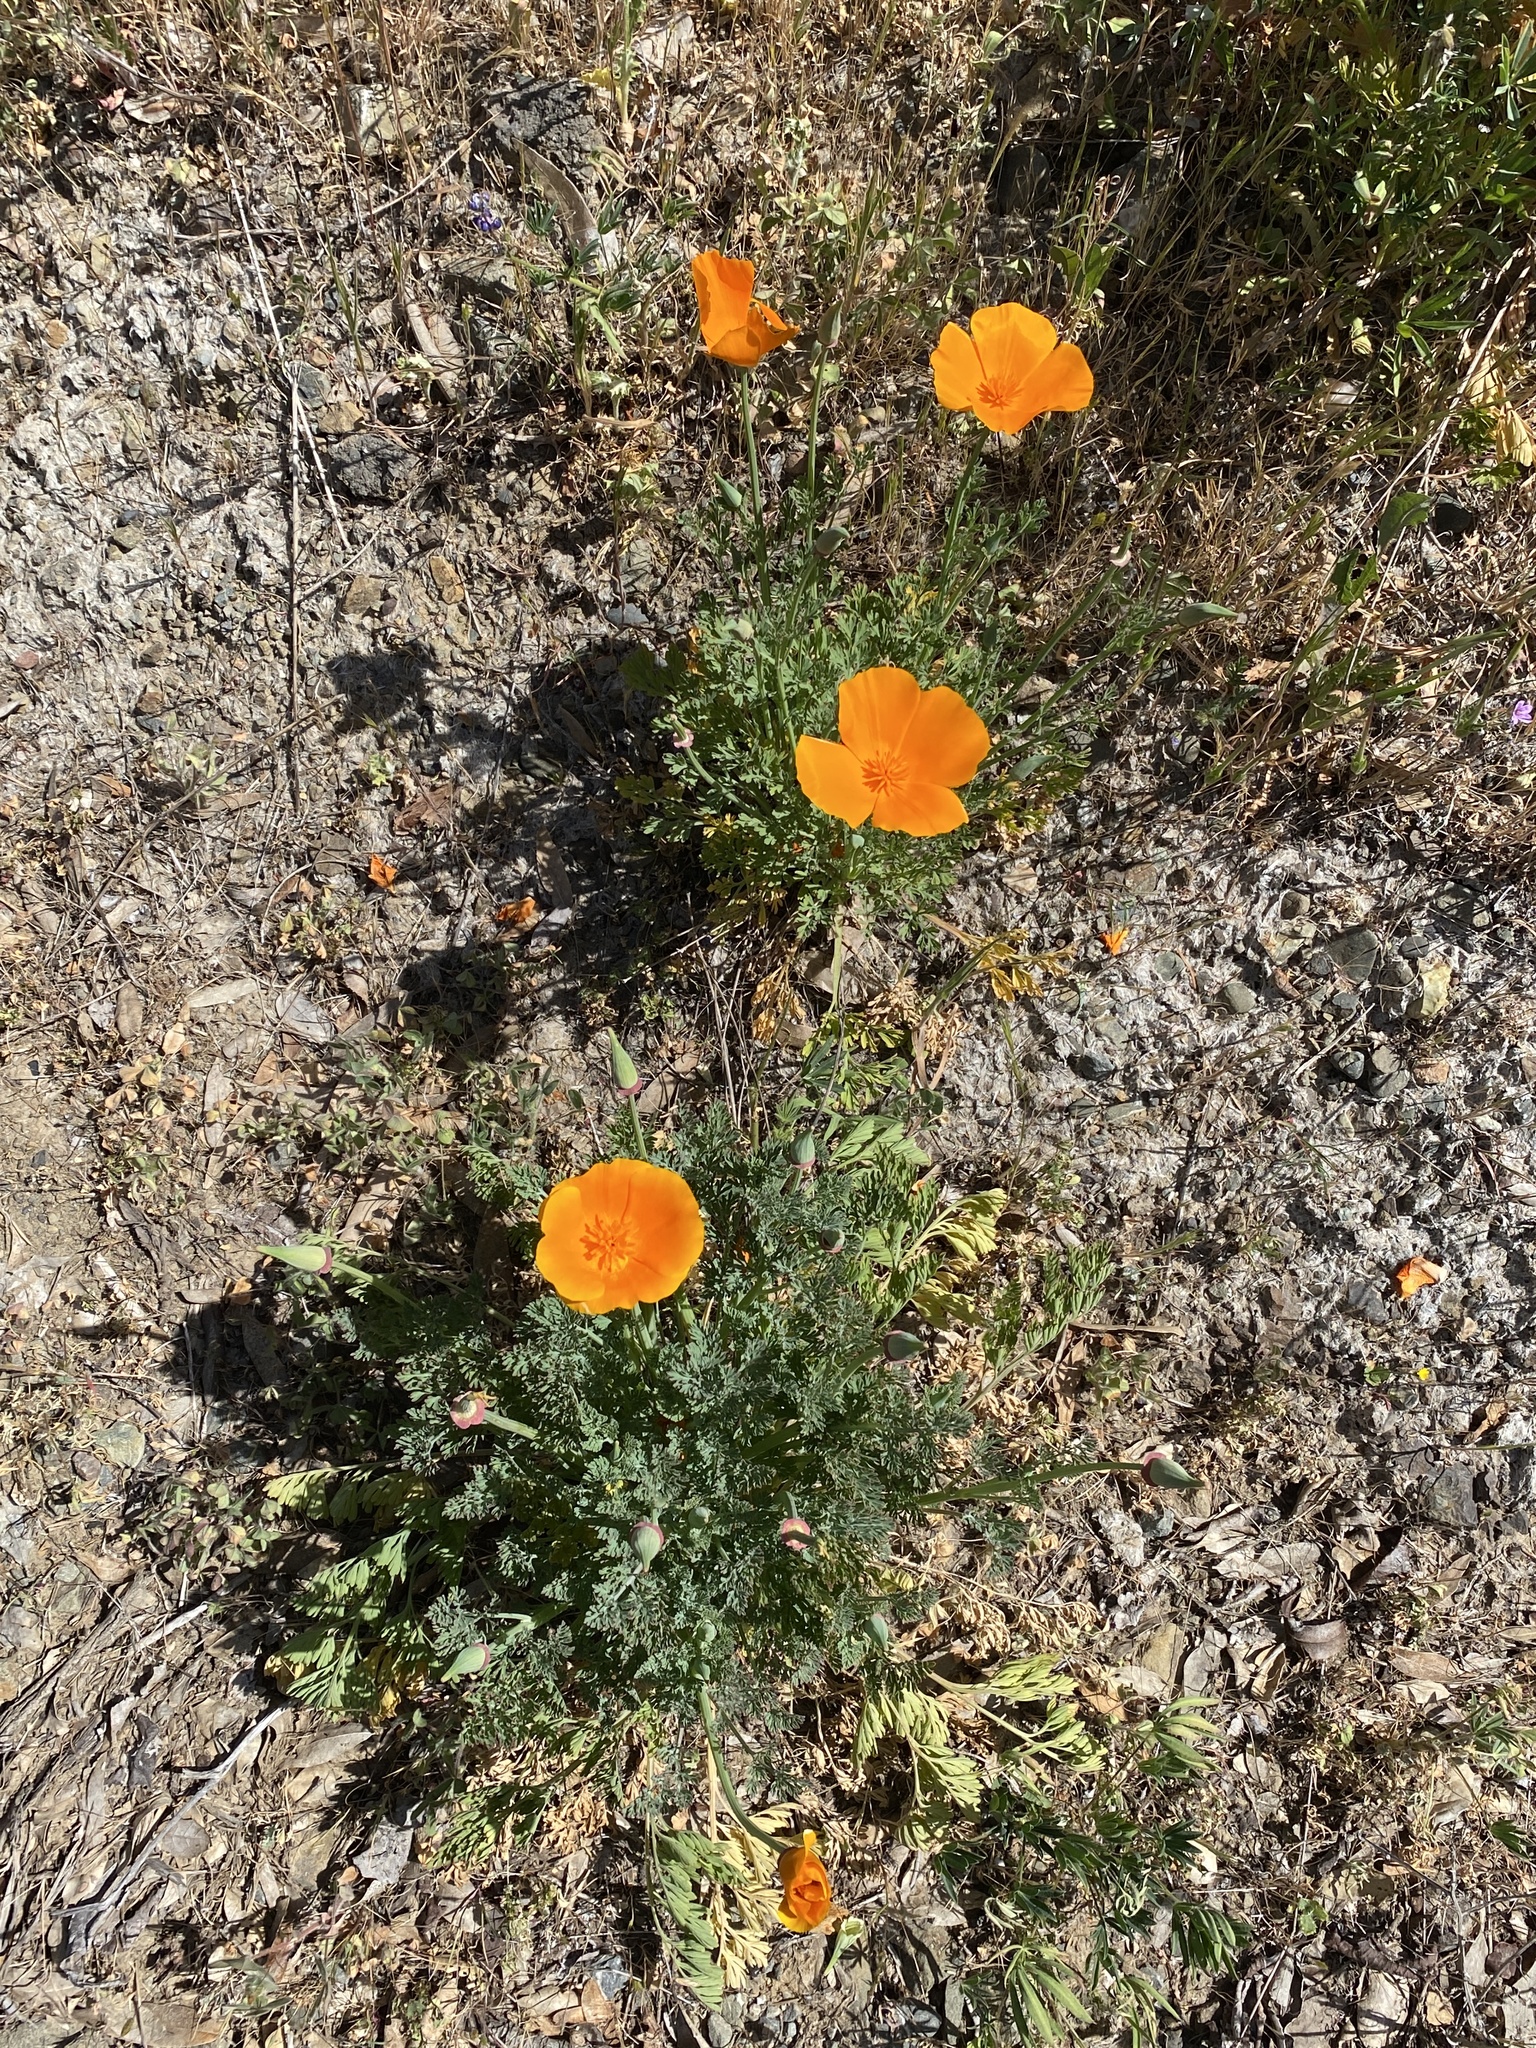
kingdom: Plantae
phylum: Tracheophyta
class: Magnoliopsida
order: Ranunculales
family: Papaveraceae
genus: Eschscholzia
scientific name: Eschscholzia californica
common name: California poppy
